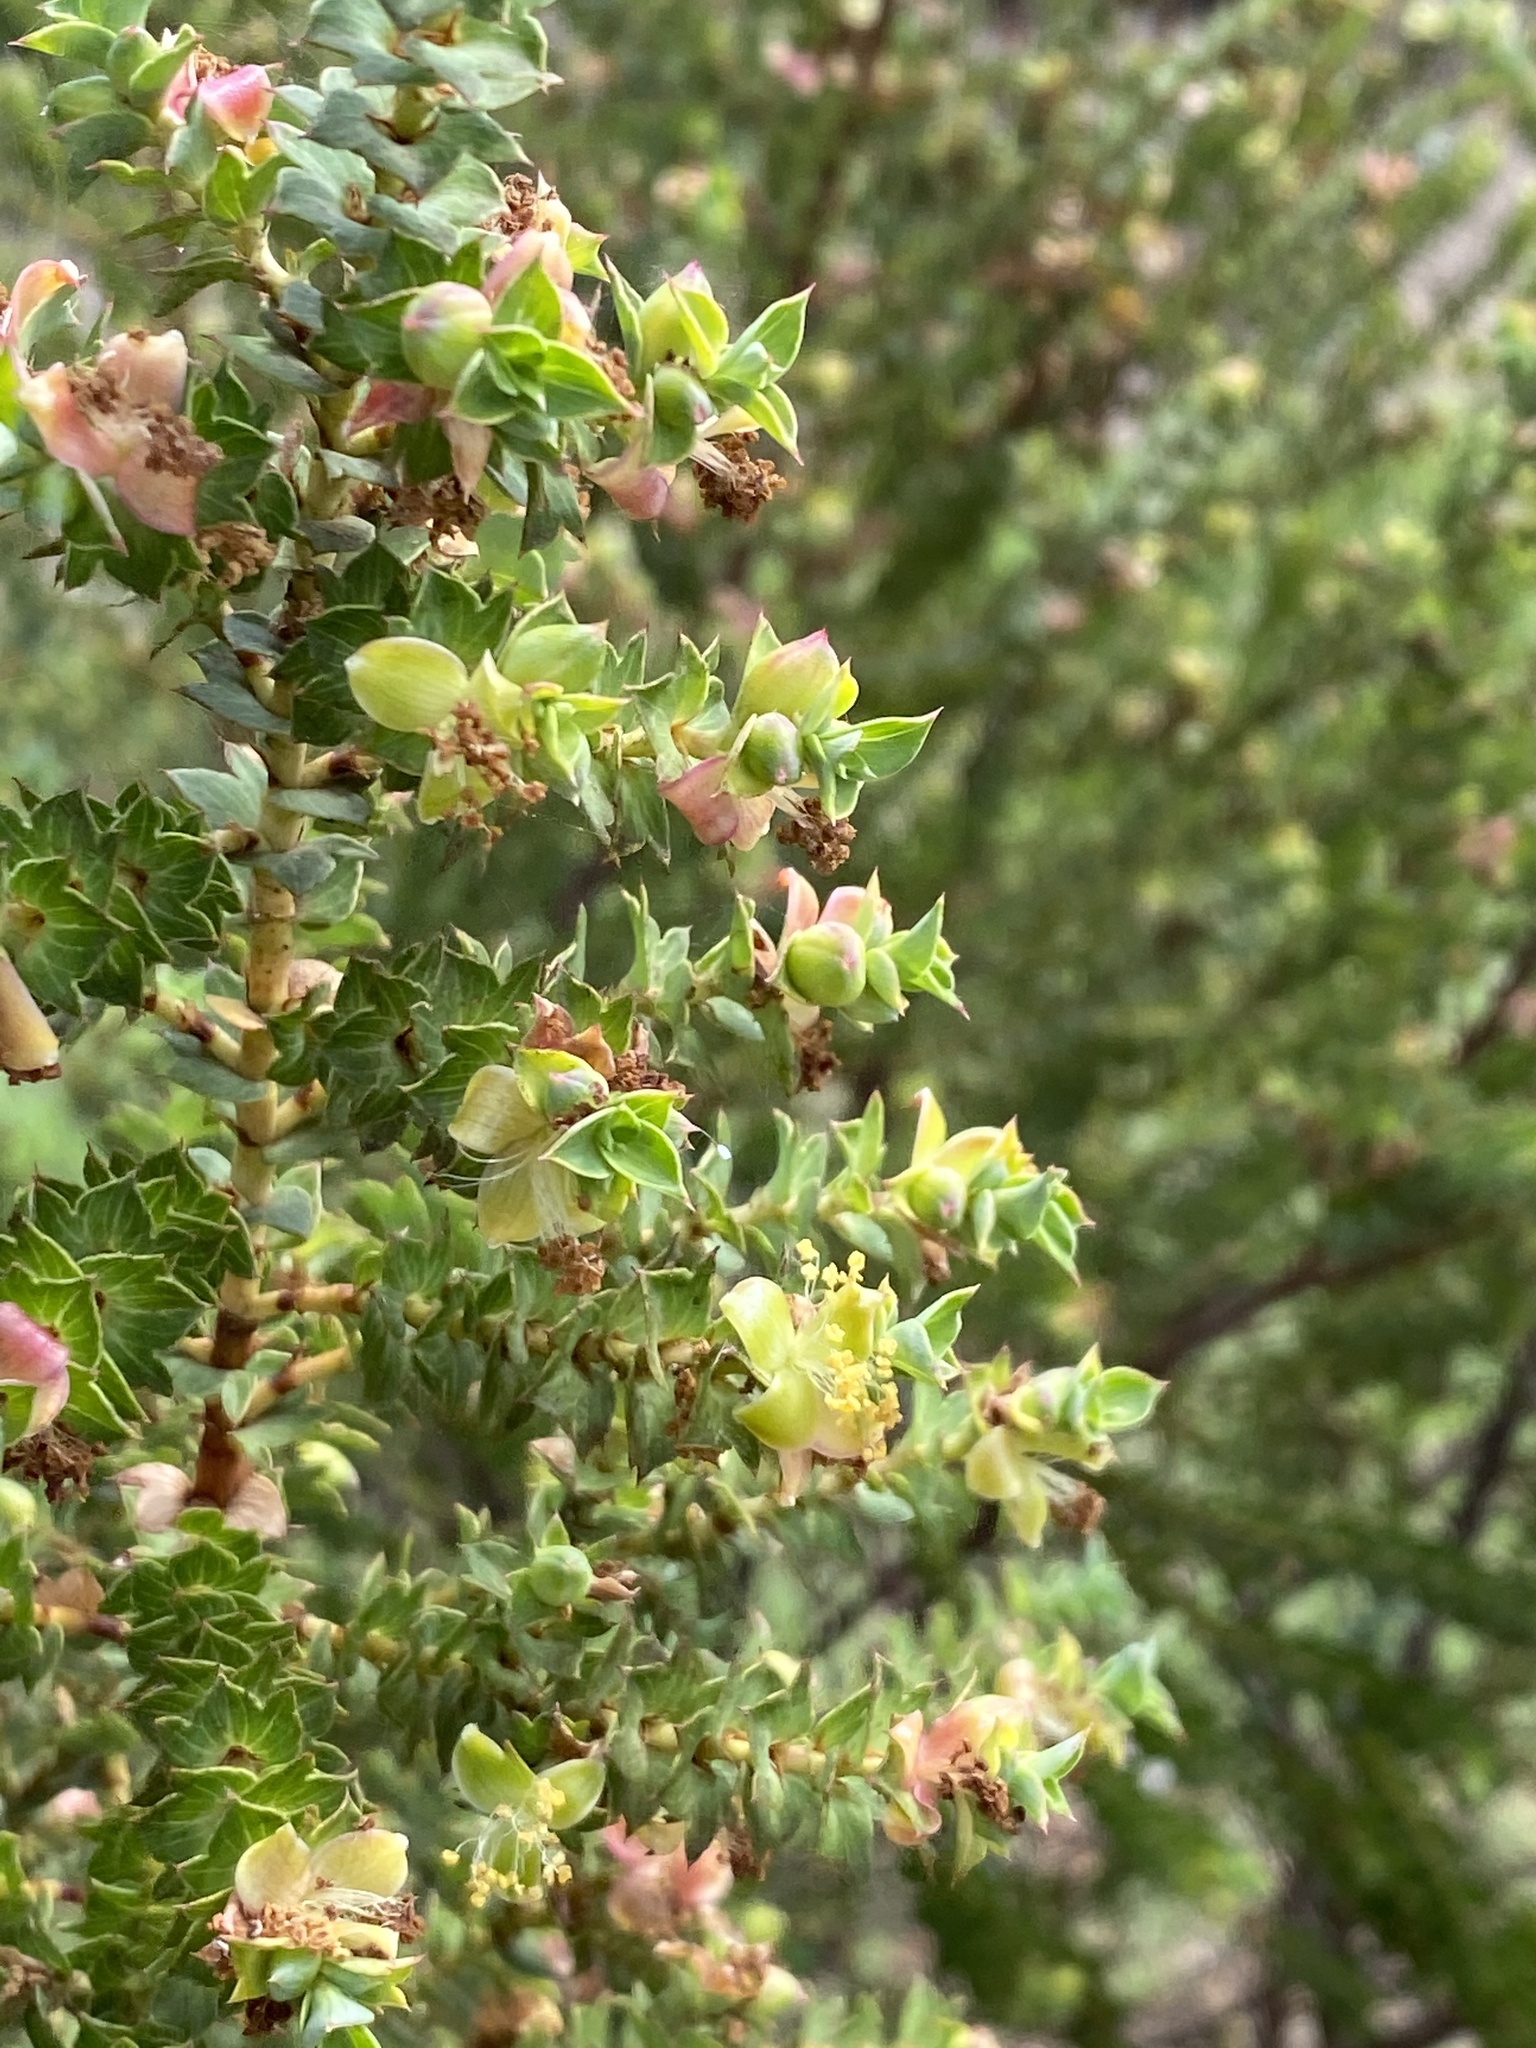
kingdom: Plantae
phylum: Tracheophyta
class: Magnoliopsida
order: Rosales
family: Rosaceae
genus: Cliffortia
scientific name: Cliffortia schlechteri
